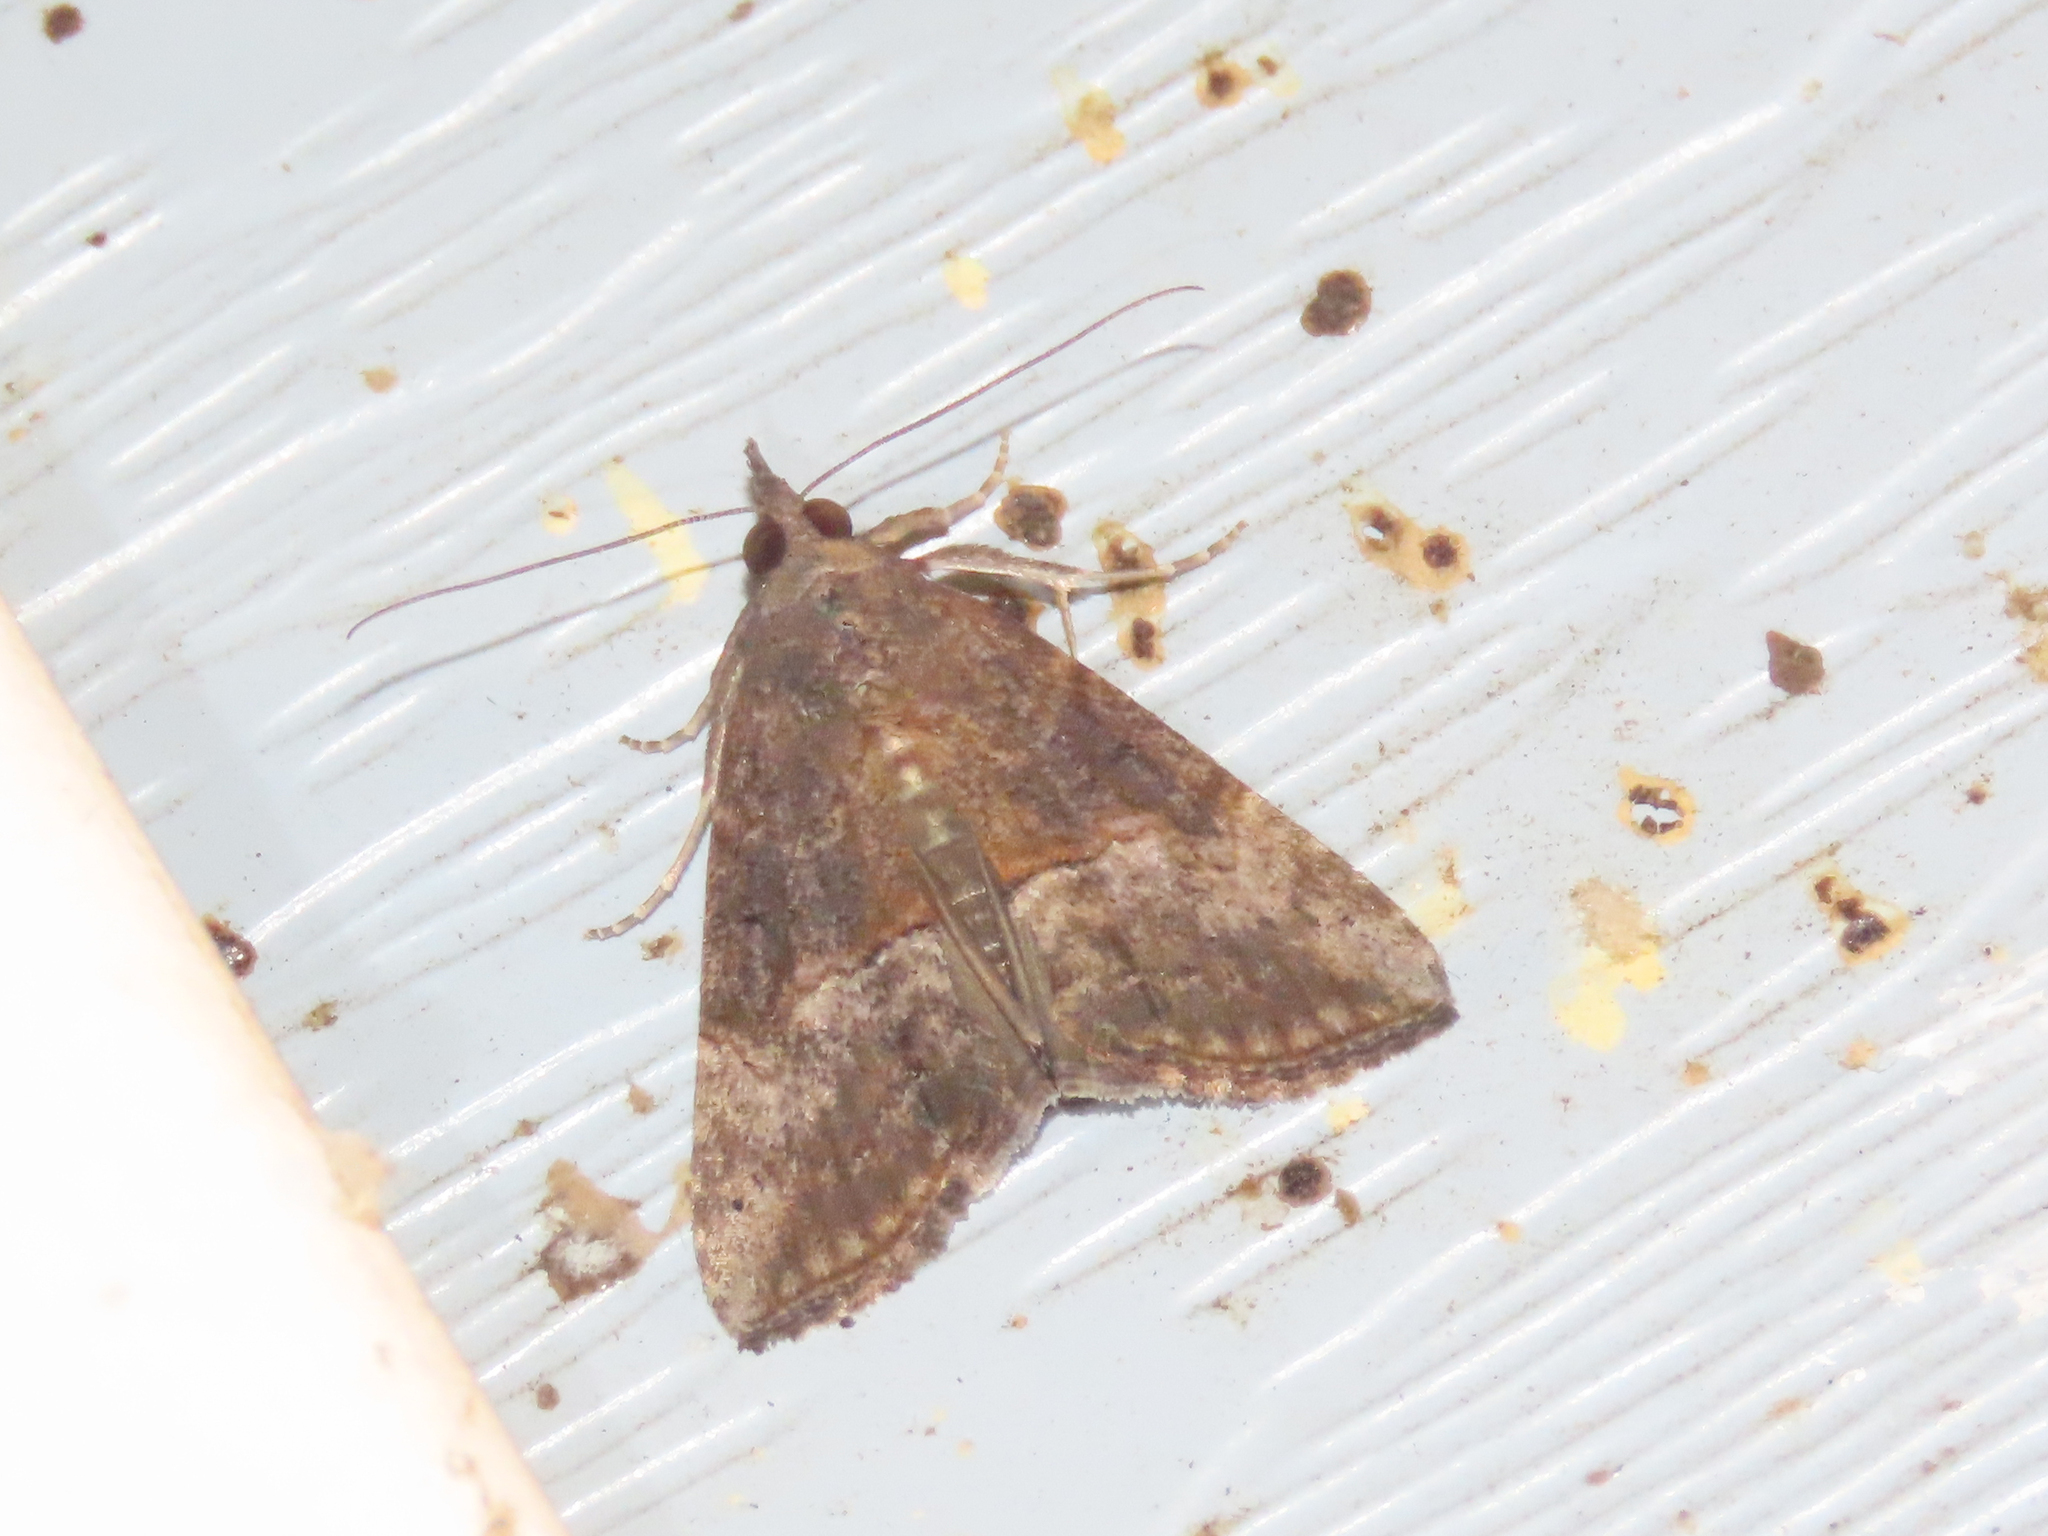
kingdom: Animalia
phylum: Arthropoda
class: Insecta
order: Lepidoptera
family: Erebidae
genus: Hypena
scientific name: Hypena scabra
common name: Green cloverworm
